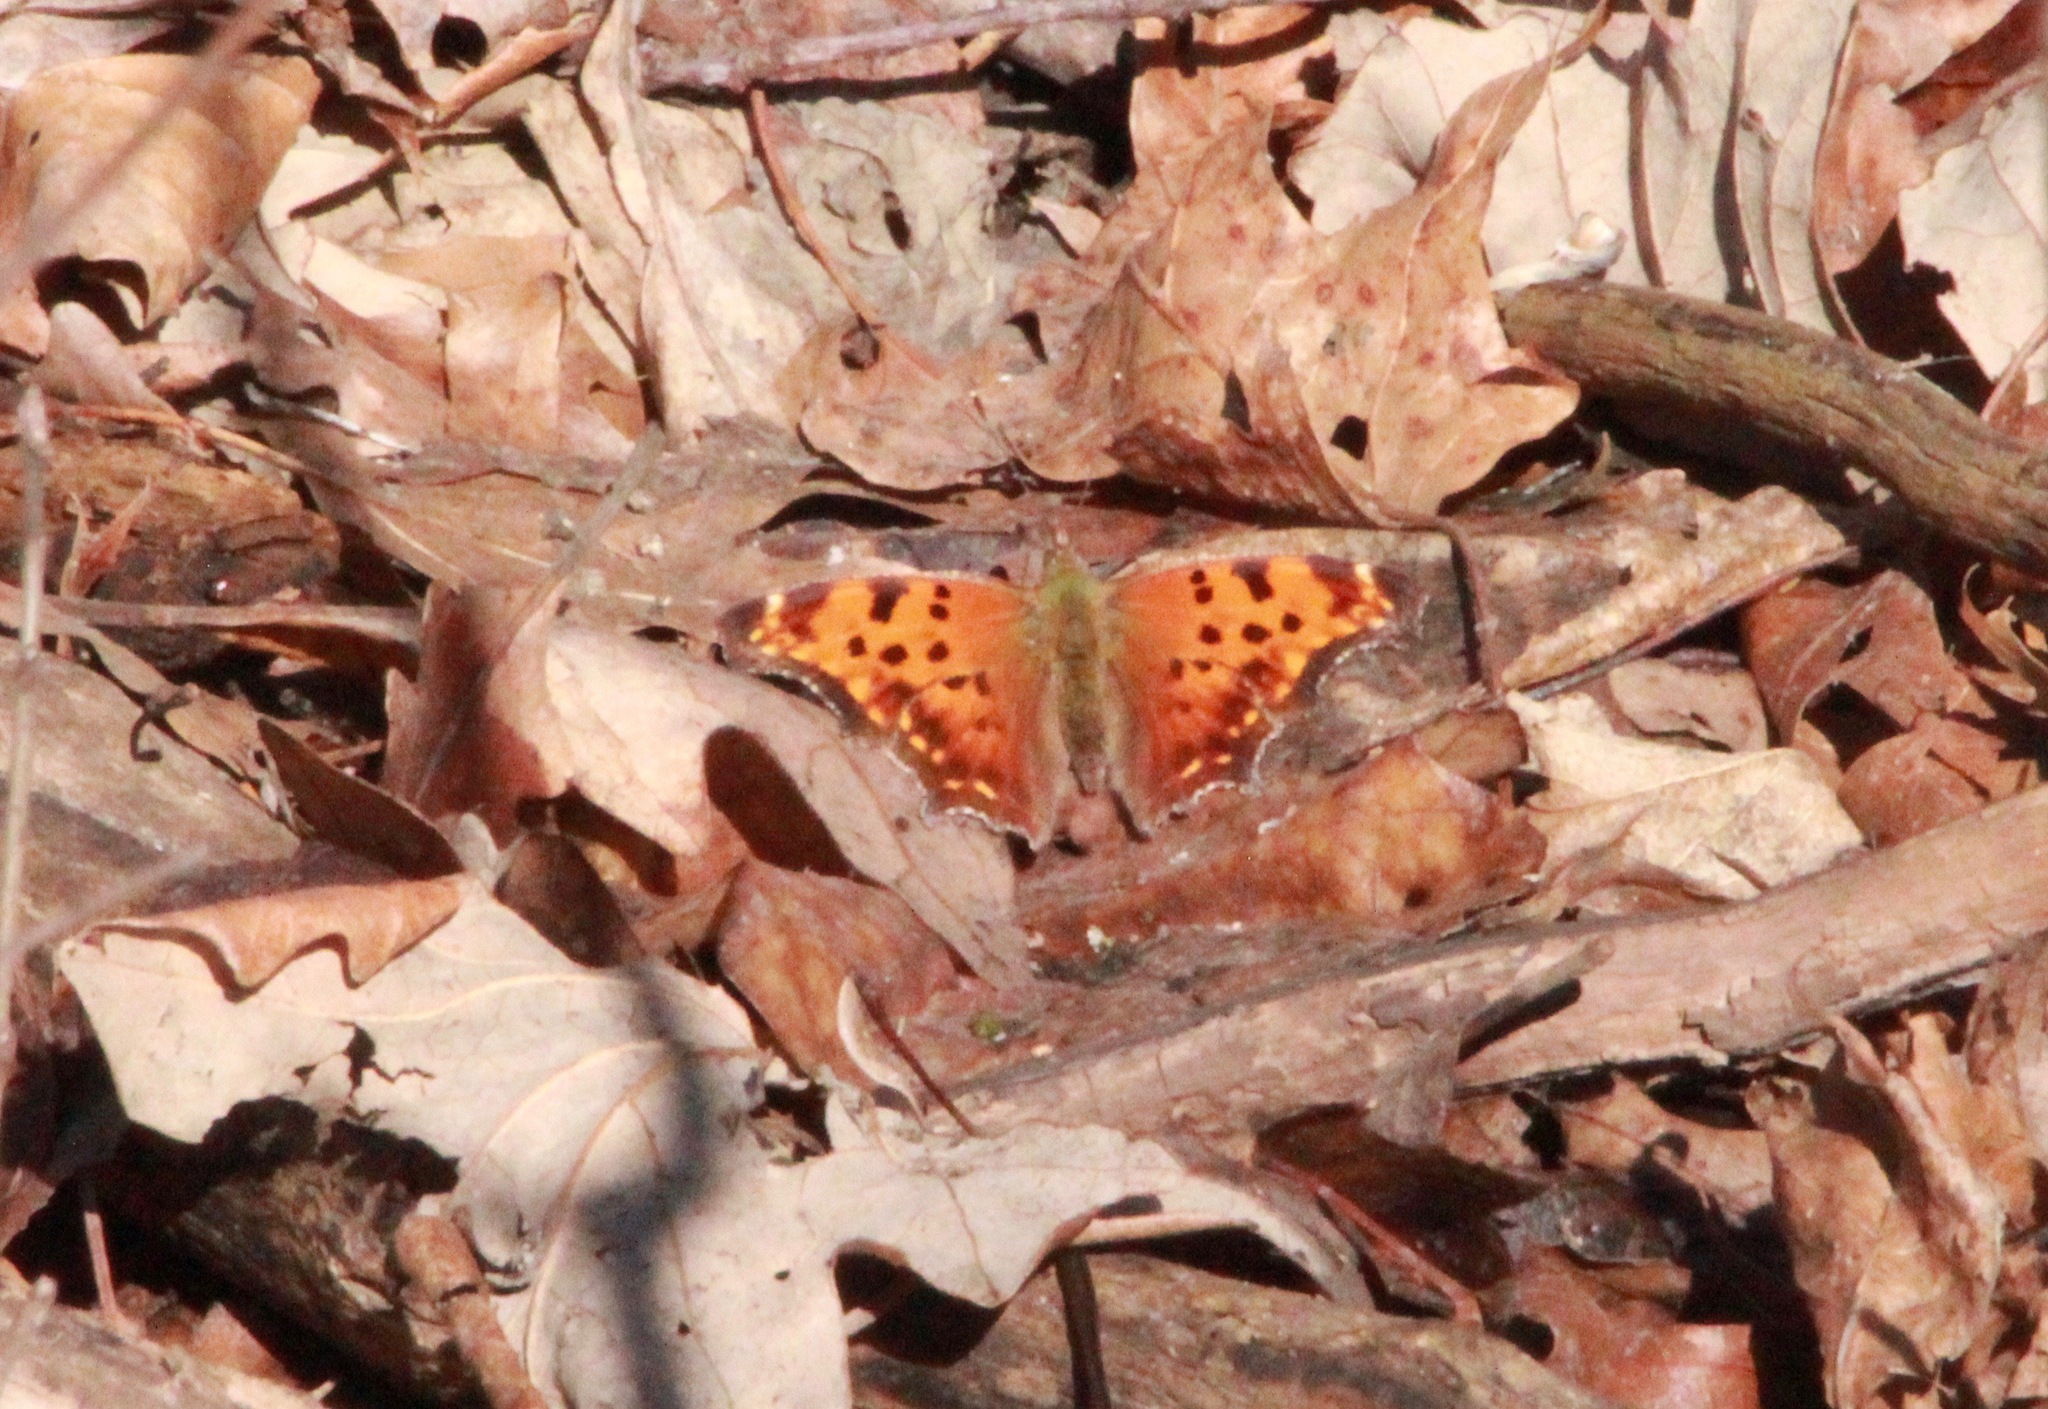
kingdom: Animalia
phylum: Arthropoda
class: Insecta
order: Lepidoptera
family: Nymphalidae
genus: Polygonia
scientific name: Polygonia comma
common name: Eastern comma
